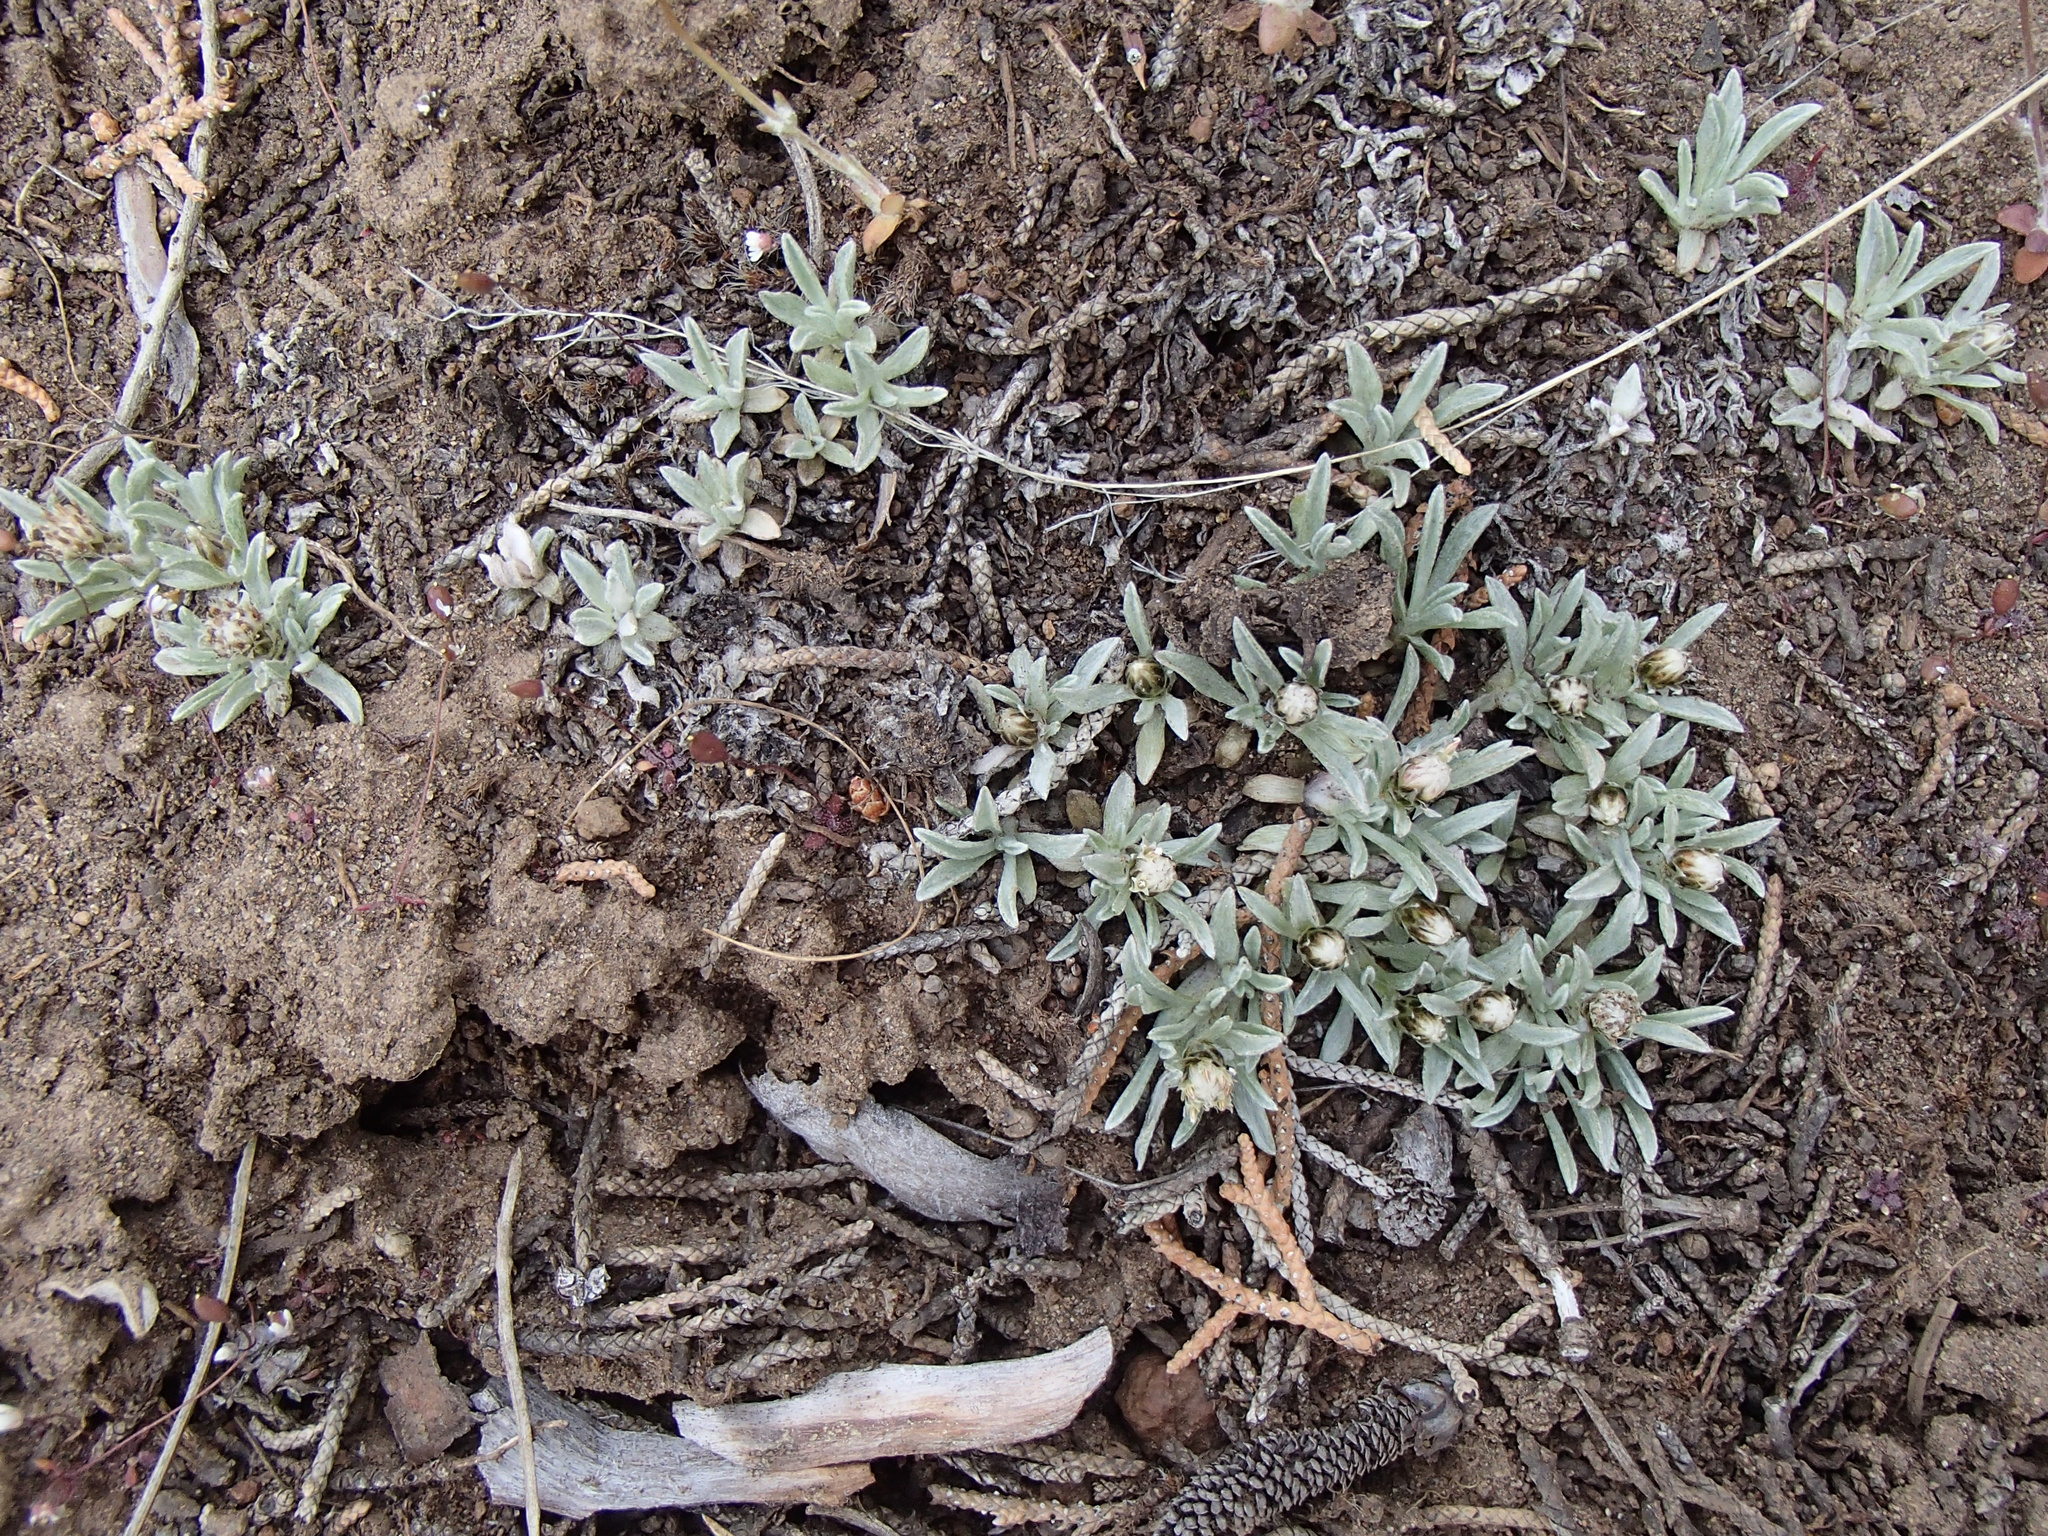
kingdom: Plantae
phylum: Tracheophyta
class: Magnoliopsida
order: Asterales
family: Asteraceae
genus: Antennaria
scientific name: Antennaria dimorpha
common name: Cushion pussytoes
